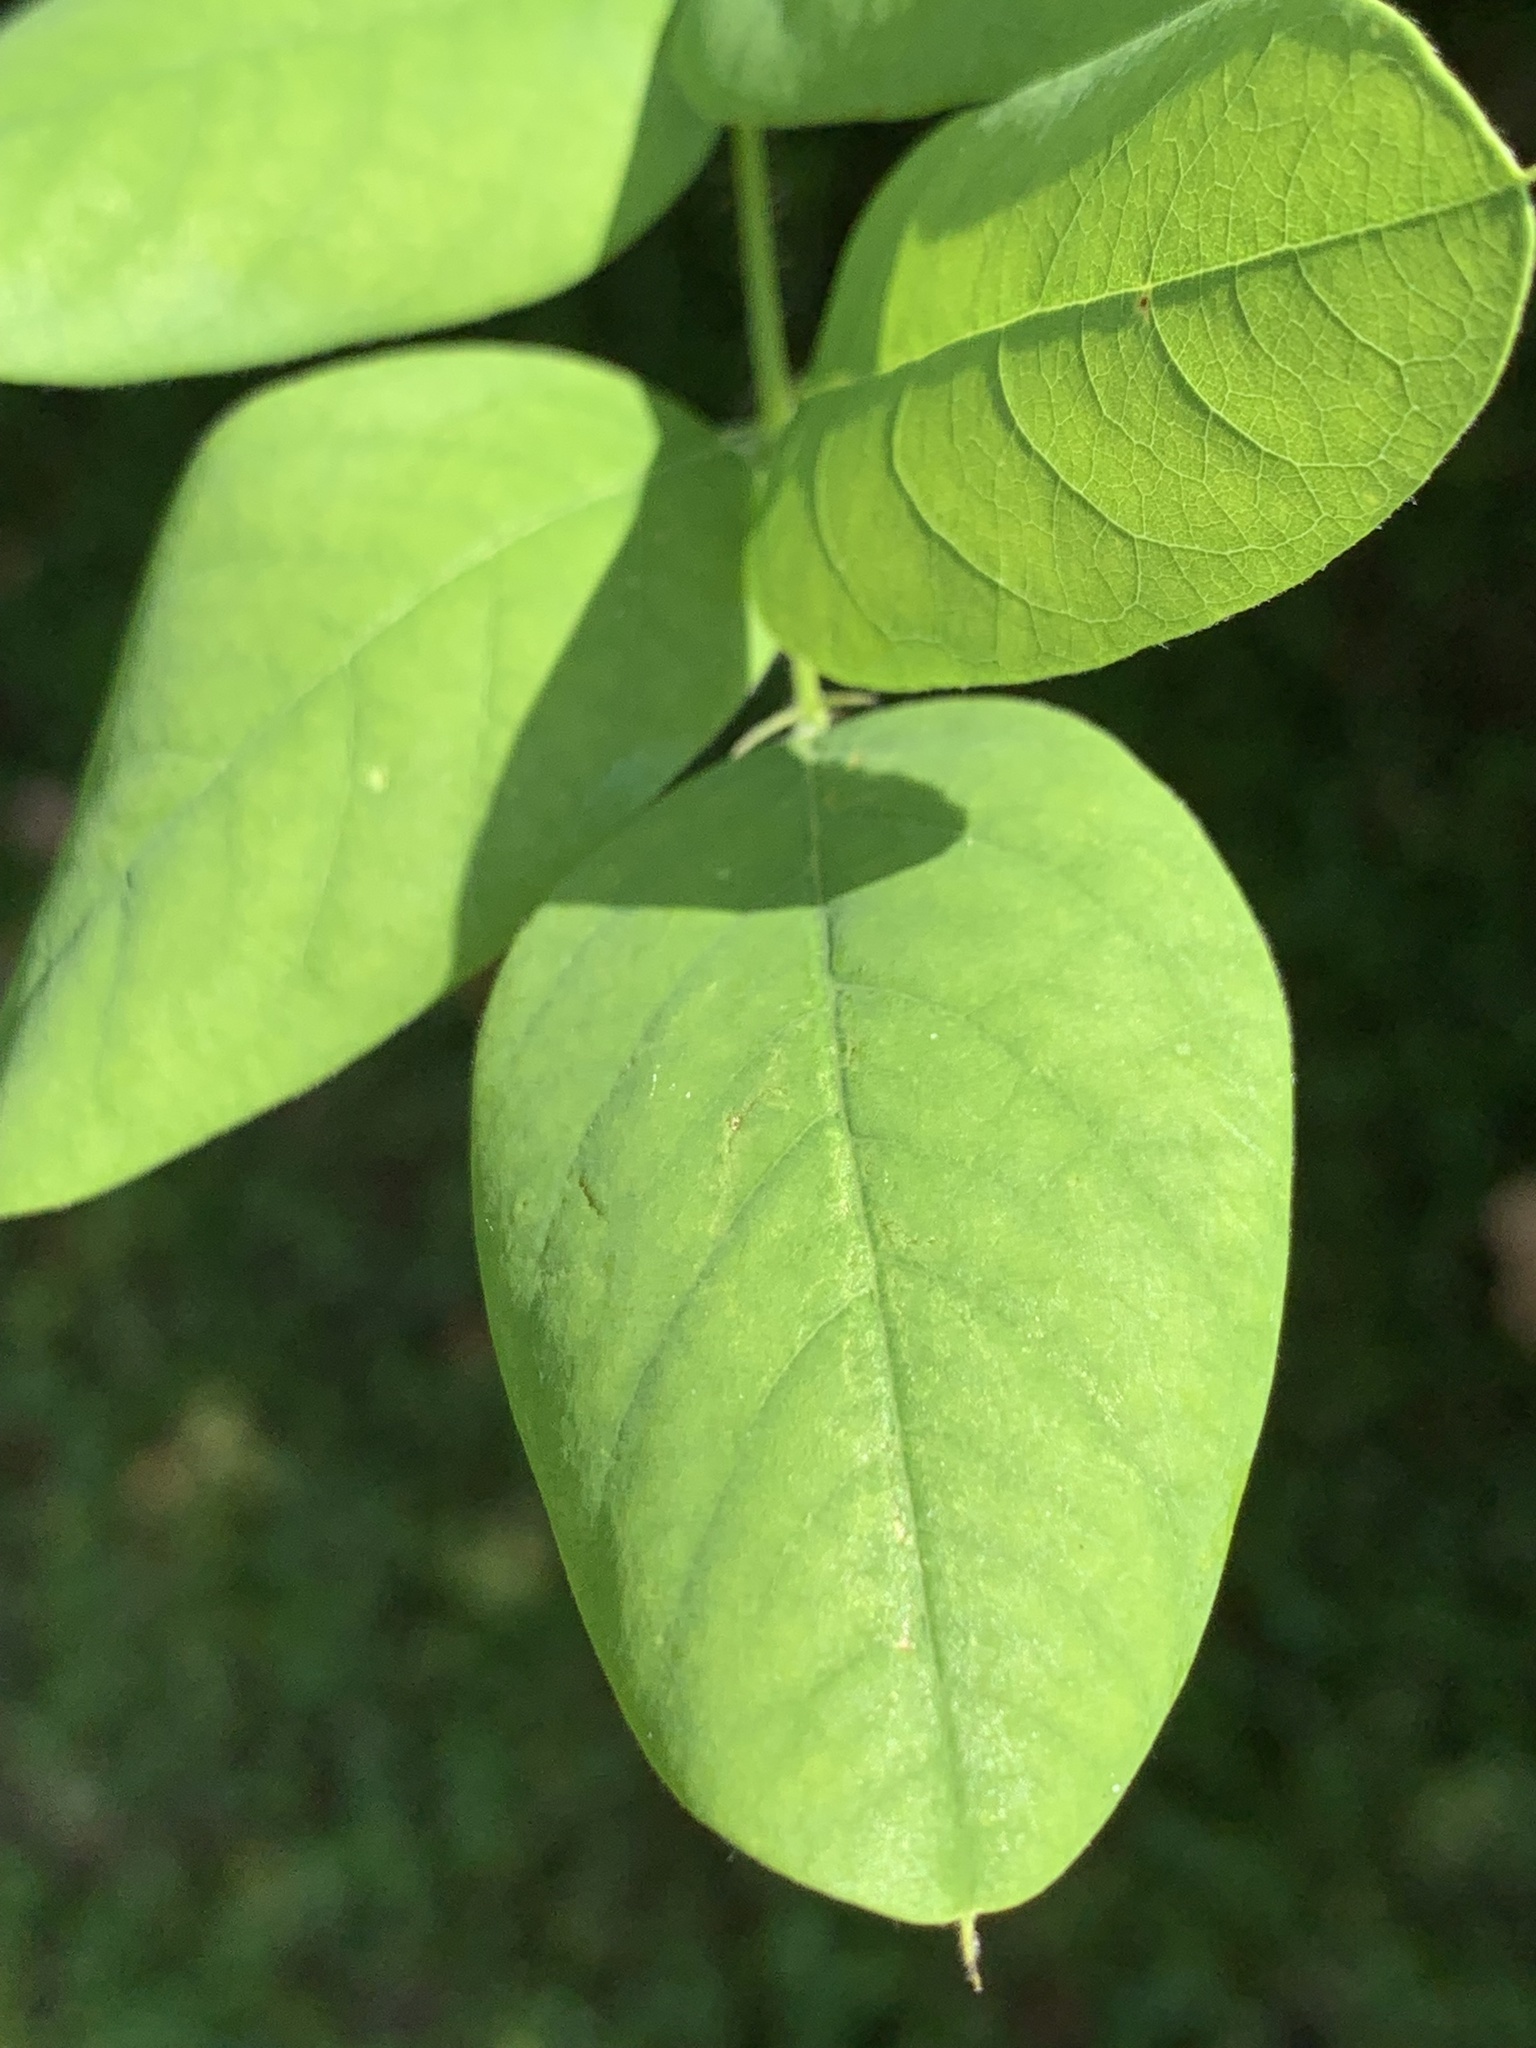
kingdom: Plantae
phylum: Tracheophyta
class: Magnoliopsida
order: Fabales
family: Fabaceae
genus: Robinia
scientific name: Robinia hispida
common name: Bristly locust
